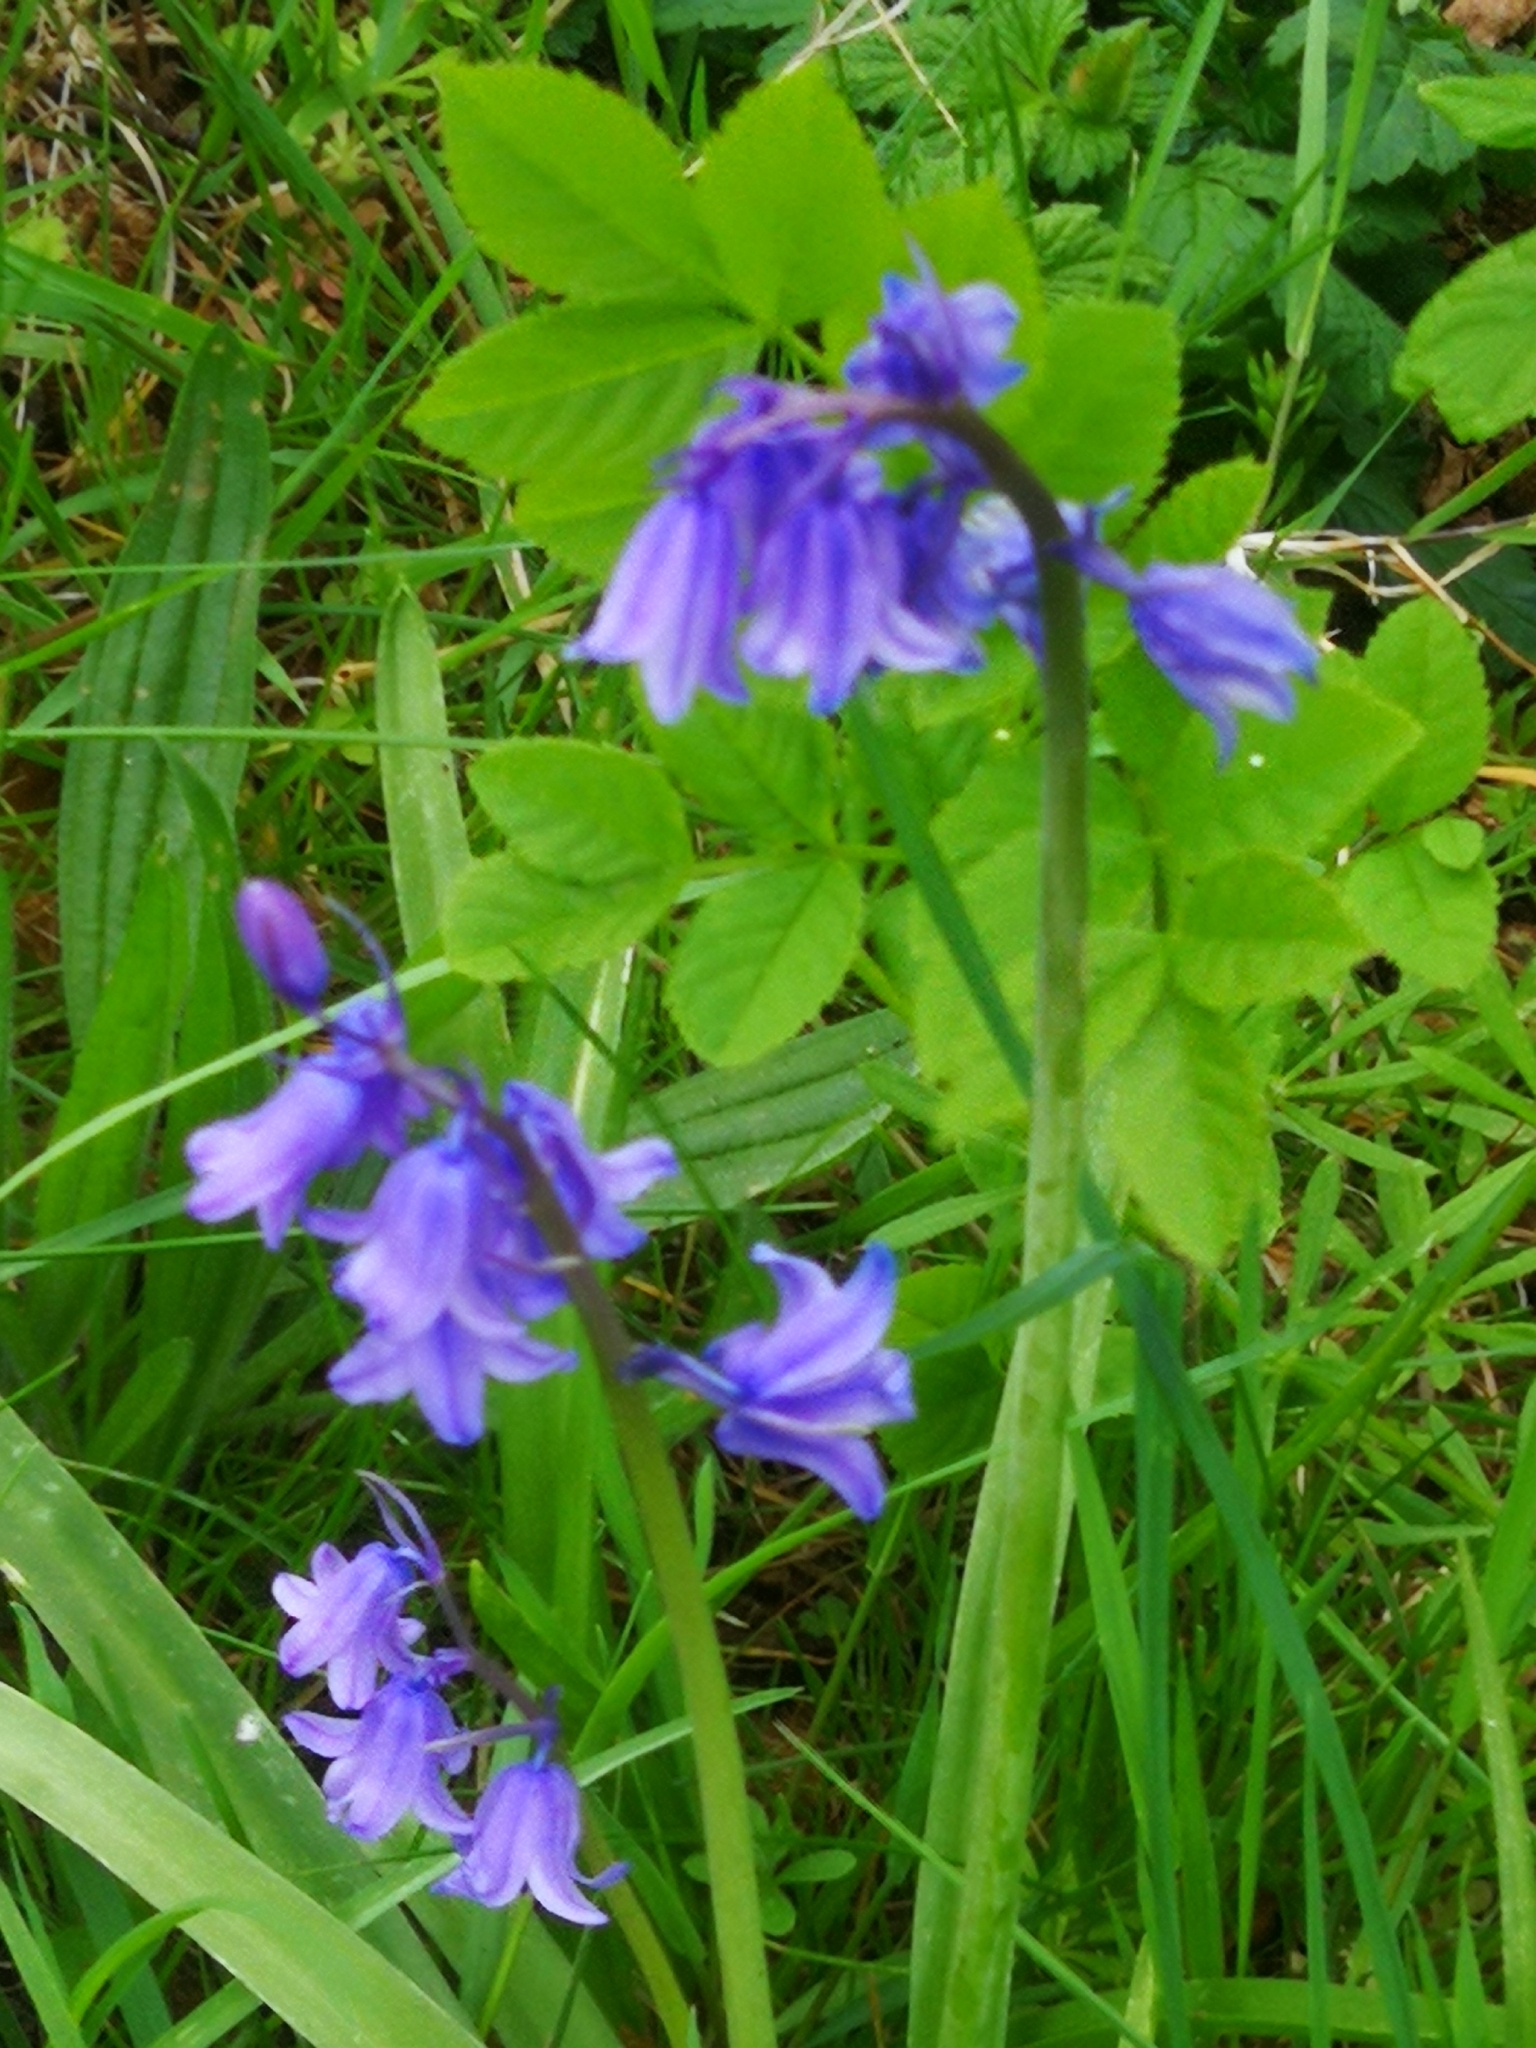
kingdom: Plantae
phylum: Tracheophyta
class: Liliopsida
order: Asparagales
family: Asparagaceae
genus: Hyacinthoides
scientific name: Hyacinthoides massartiana
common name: Hyacinthoides
